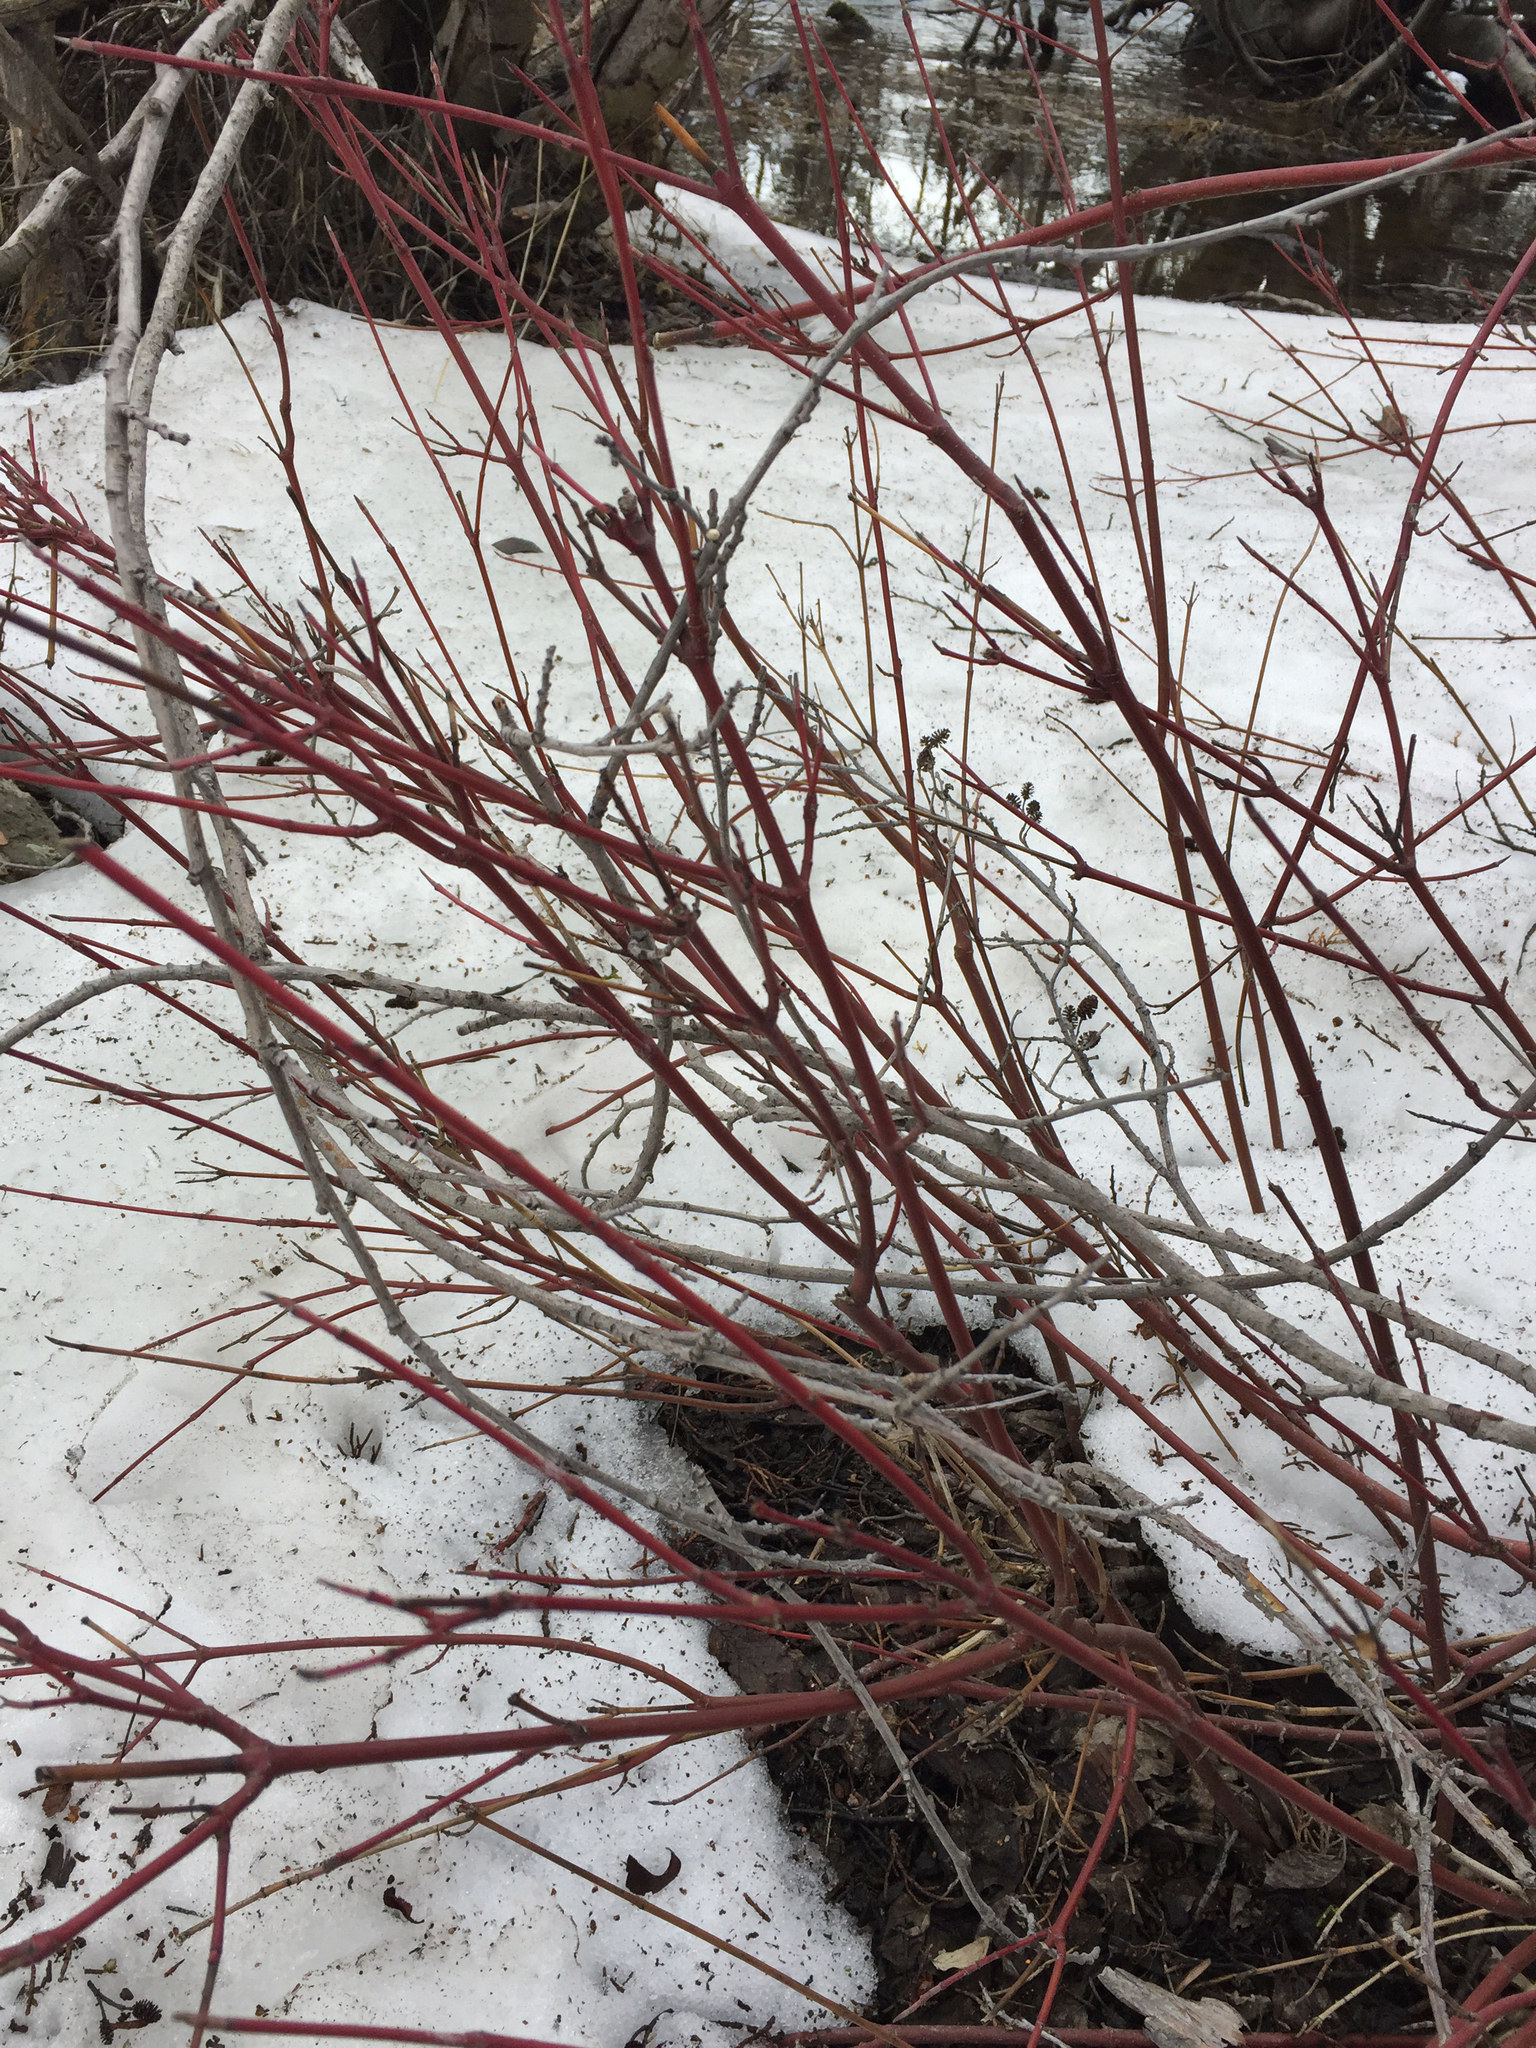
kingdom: Plantae
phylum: Tracheophyta
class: Magnoliopsida
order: Cornales
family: Cornaceae
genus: Cornus
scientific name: Cornus sericea
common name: Red-osier dogwood
